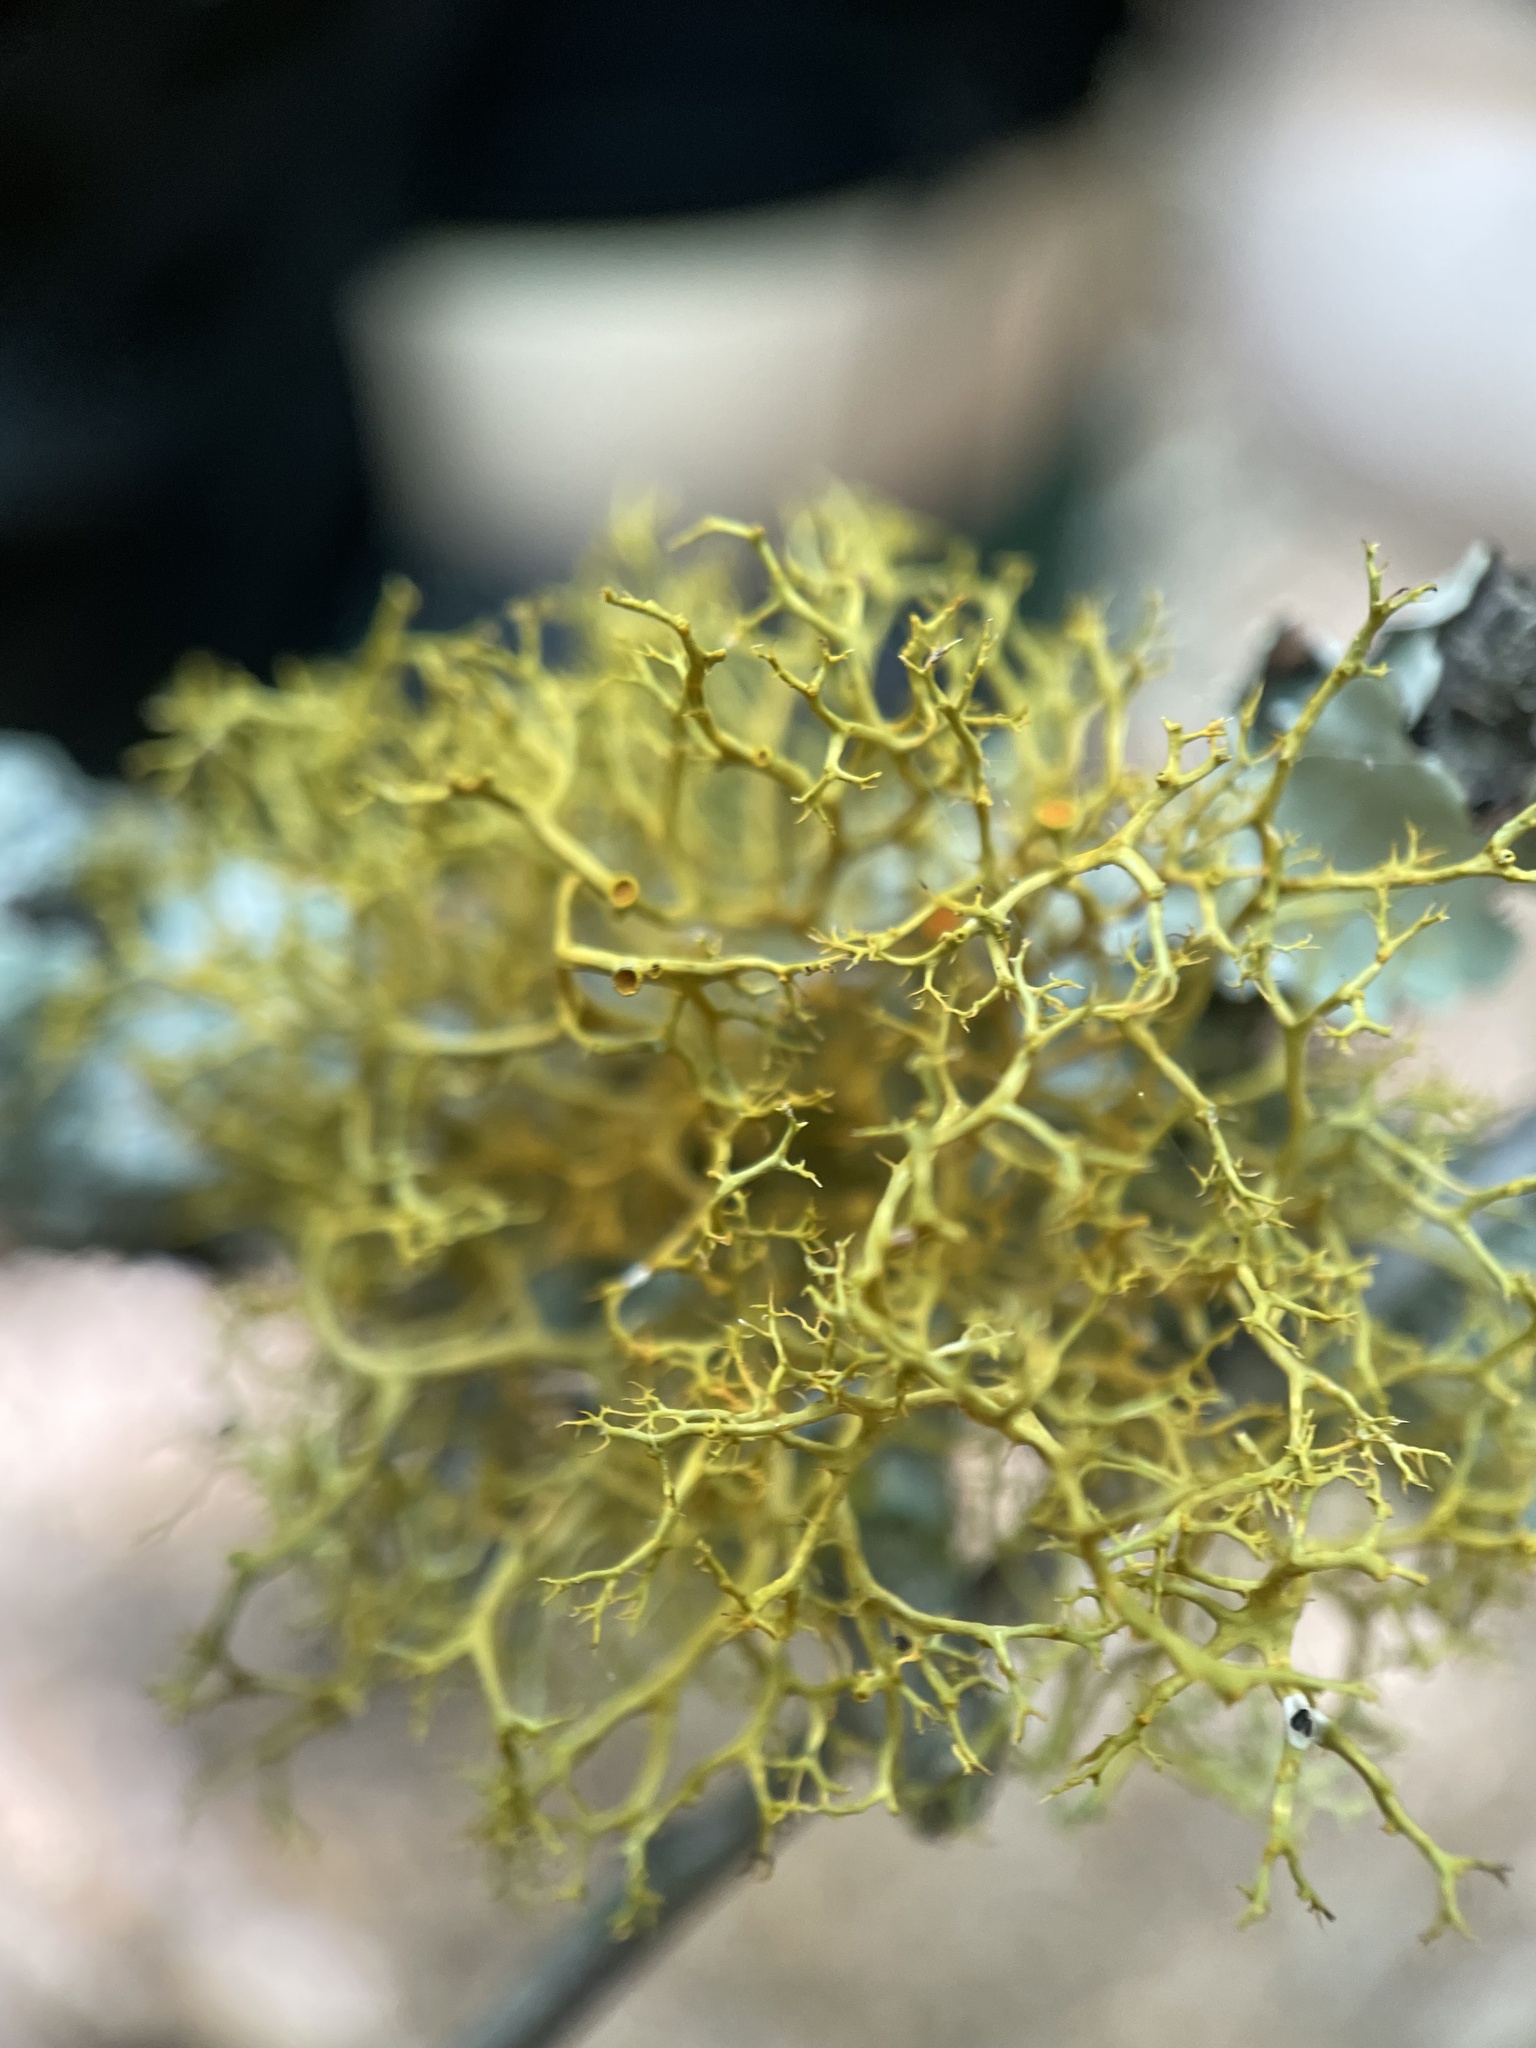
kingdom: Fungi
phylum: Ascomycota
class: Lecanoromycetes
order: Teloschistales
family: Teloschistaceae
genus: Teloschistes
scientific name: Teloschistes exilis
